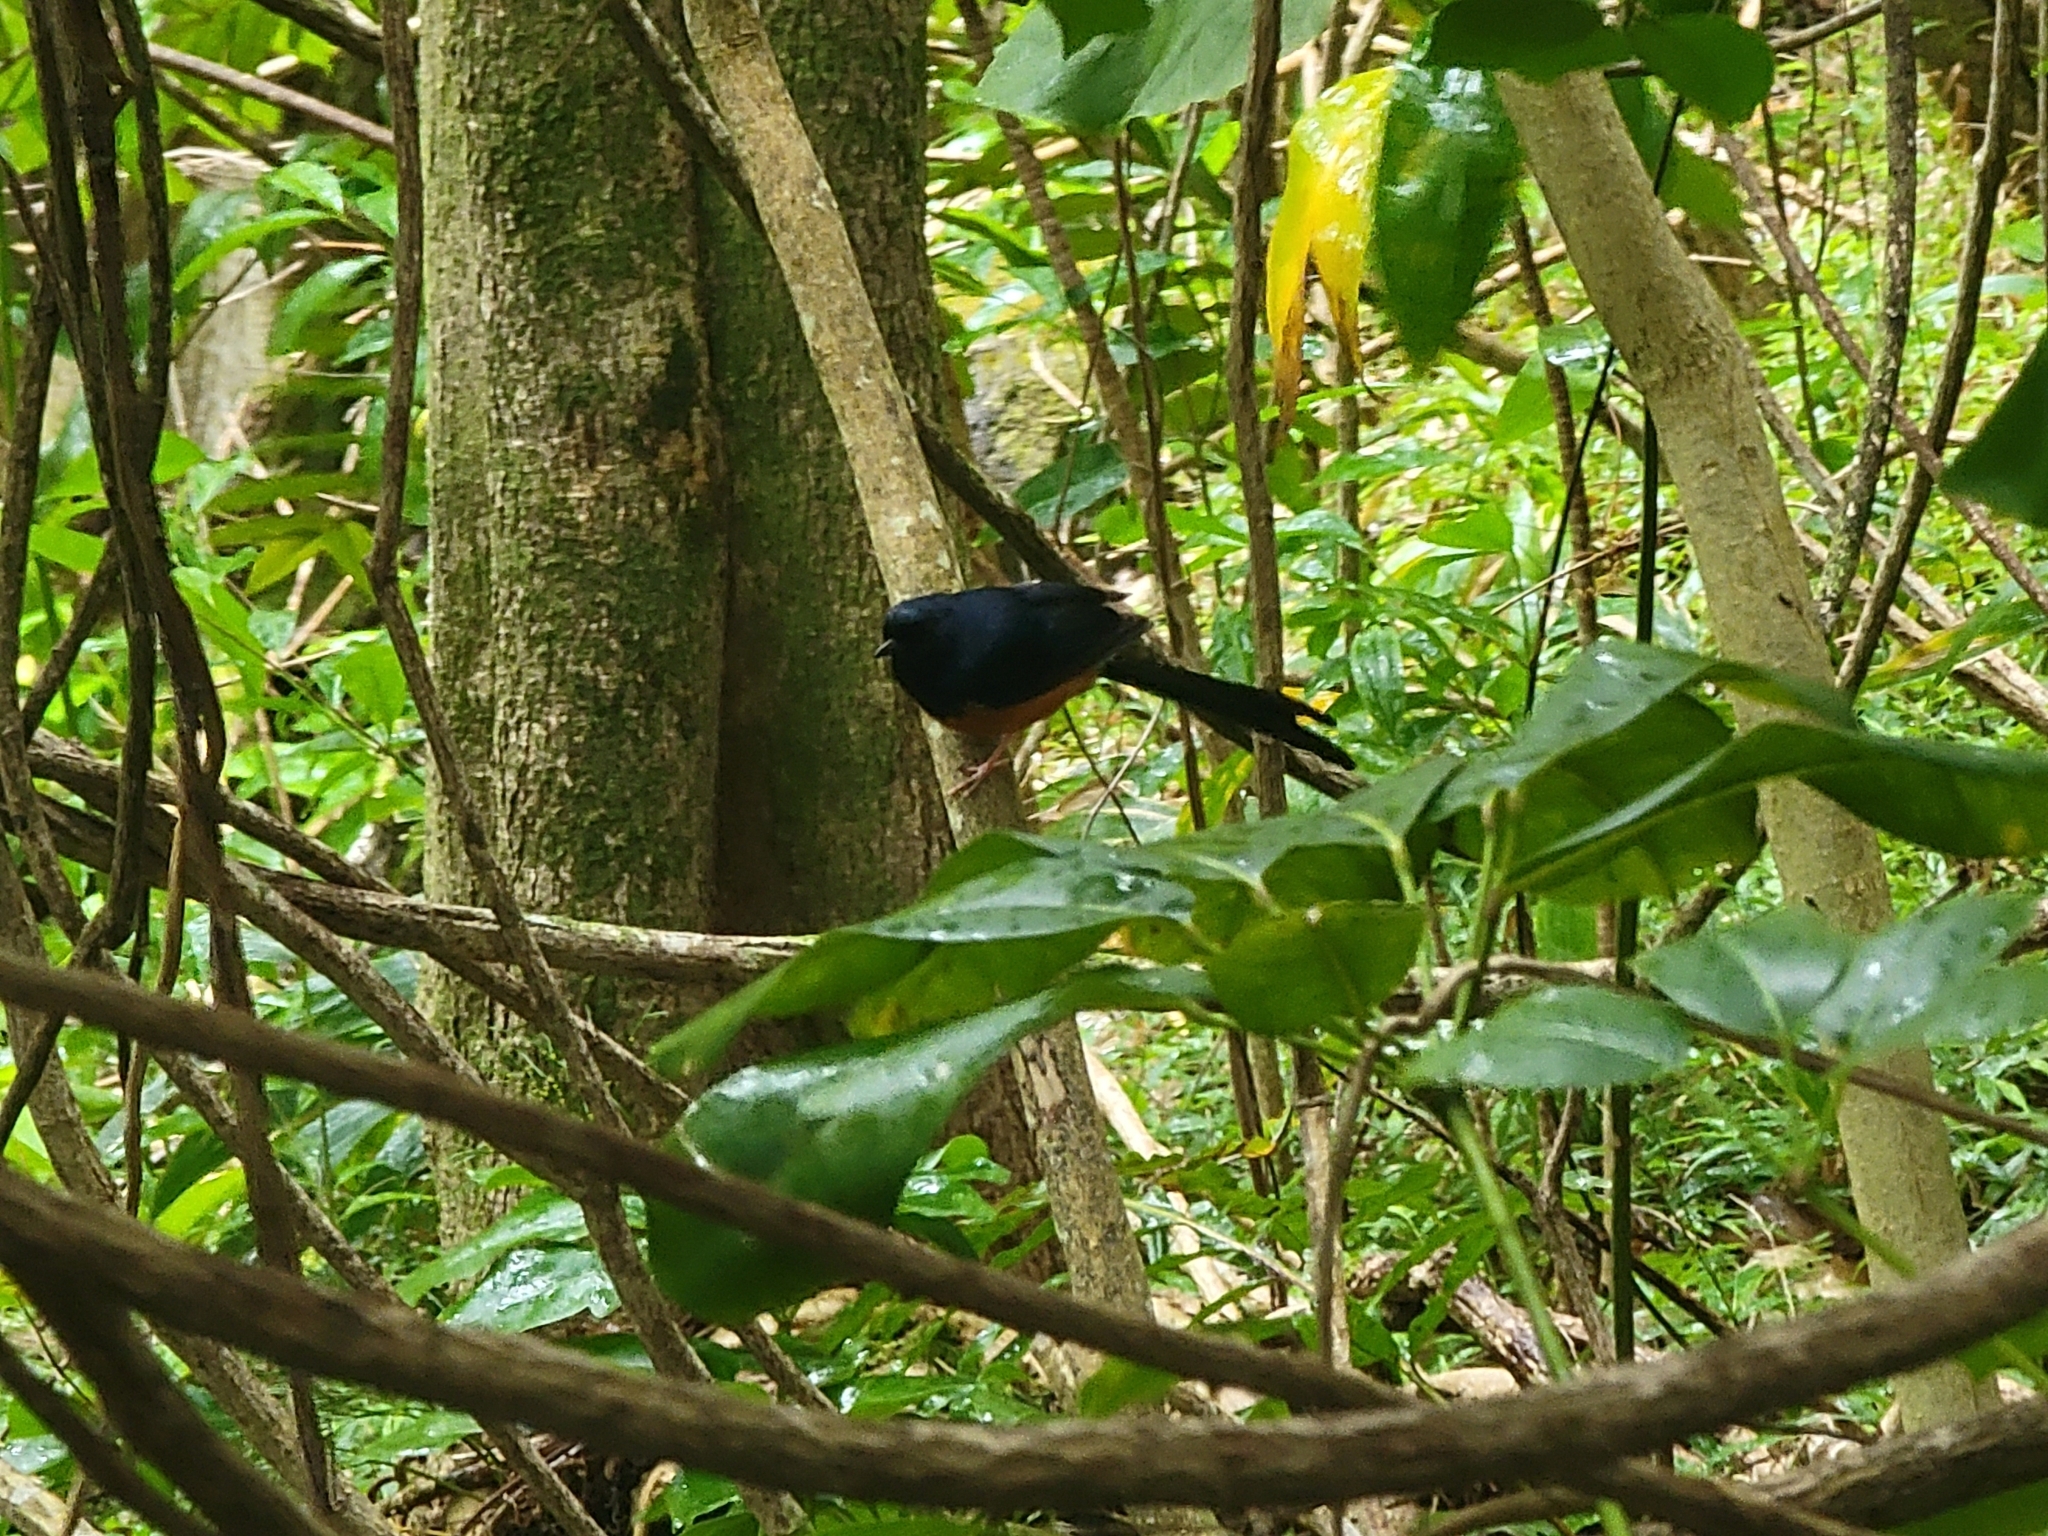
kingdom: Animalia
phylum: Chordata
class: Aves
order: Passeriformes
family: Muscicapidae
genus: Copsychus
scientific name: Copsychus malabaricus
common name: White-rumped shama
